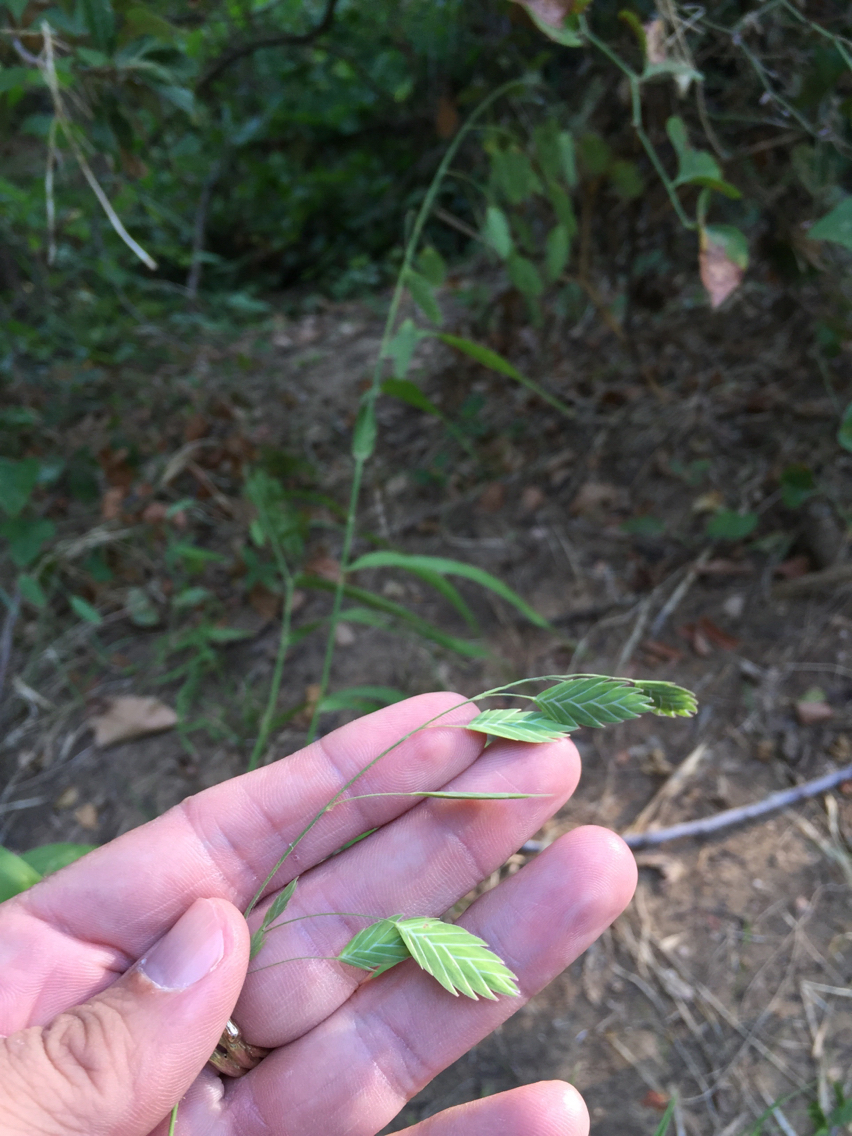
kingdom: Plantae
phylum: Tracheophyta
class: Liliopsida
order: Poales
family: Poaceae
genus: Chasmanthium
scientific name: Chasmanthium latifolium
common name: Broad-leaved chasmanthium
